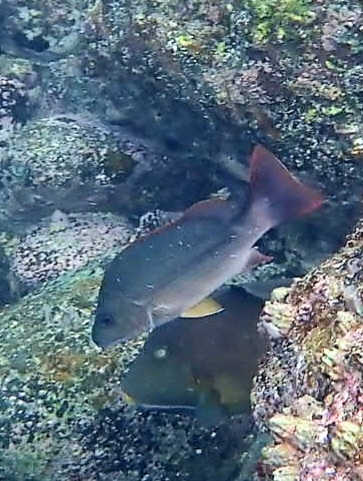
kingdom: Animalia
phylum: Chordata
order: Perciformes
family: Lutjanidae
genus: Lutjanus
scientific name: Lutjanus argentimaculatus
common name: Mangrove red snapper
